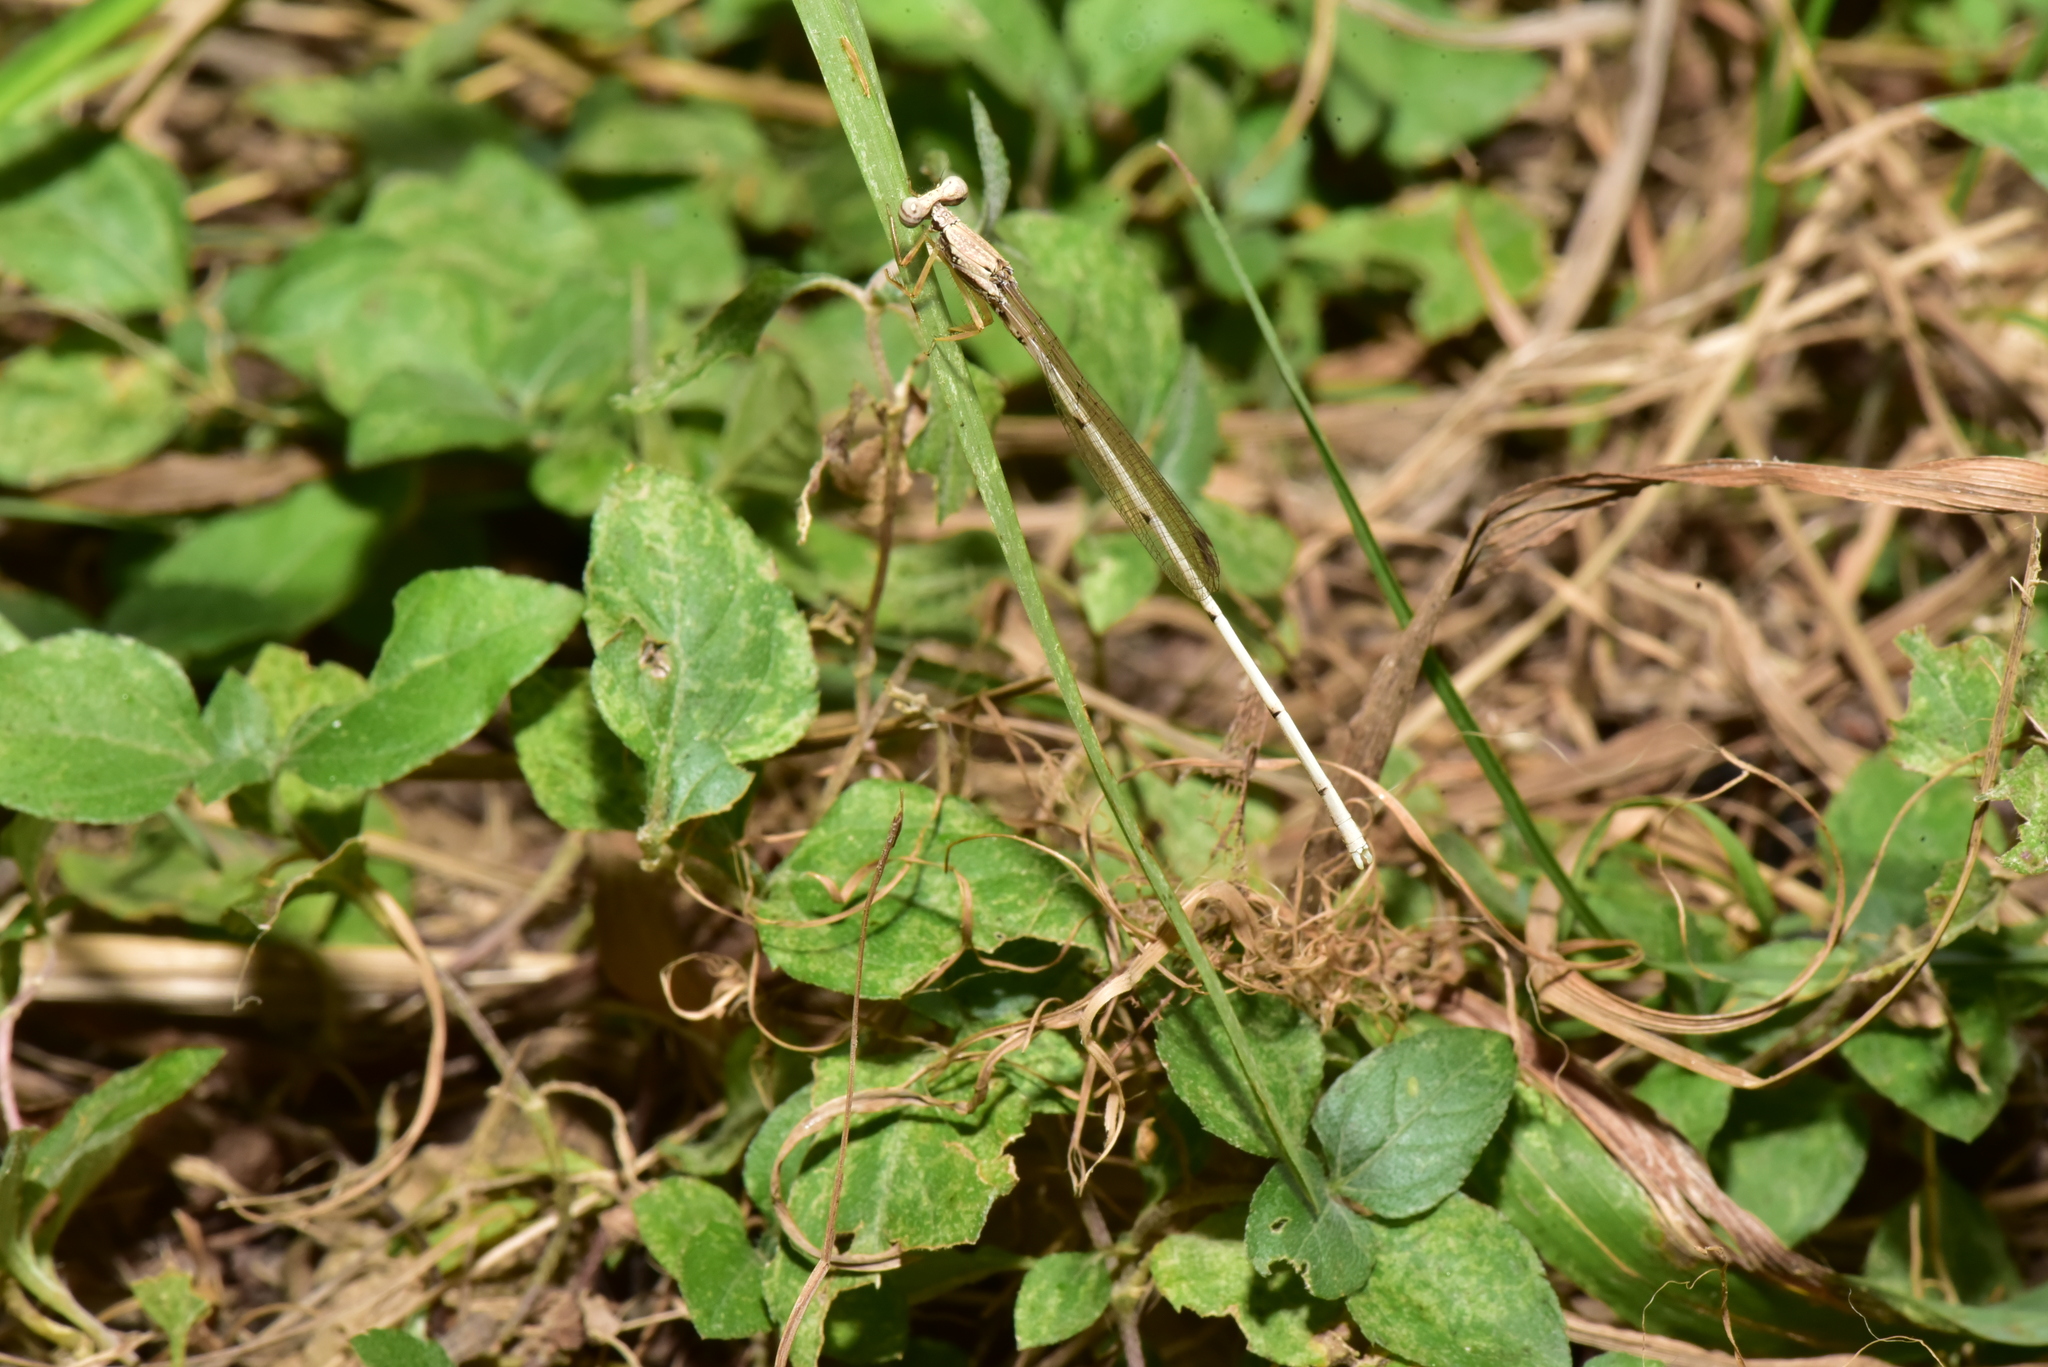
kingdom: Animalia
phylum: Arthropoda
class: Insecta
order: Odonata
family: Platycnemididae
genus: Copera
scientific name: Copera marginipes
